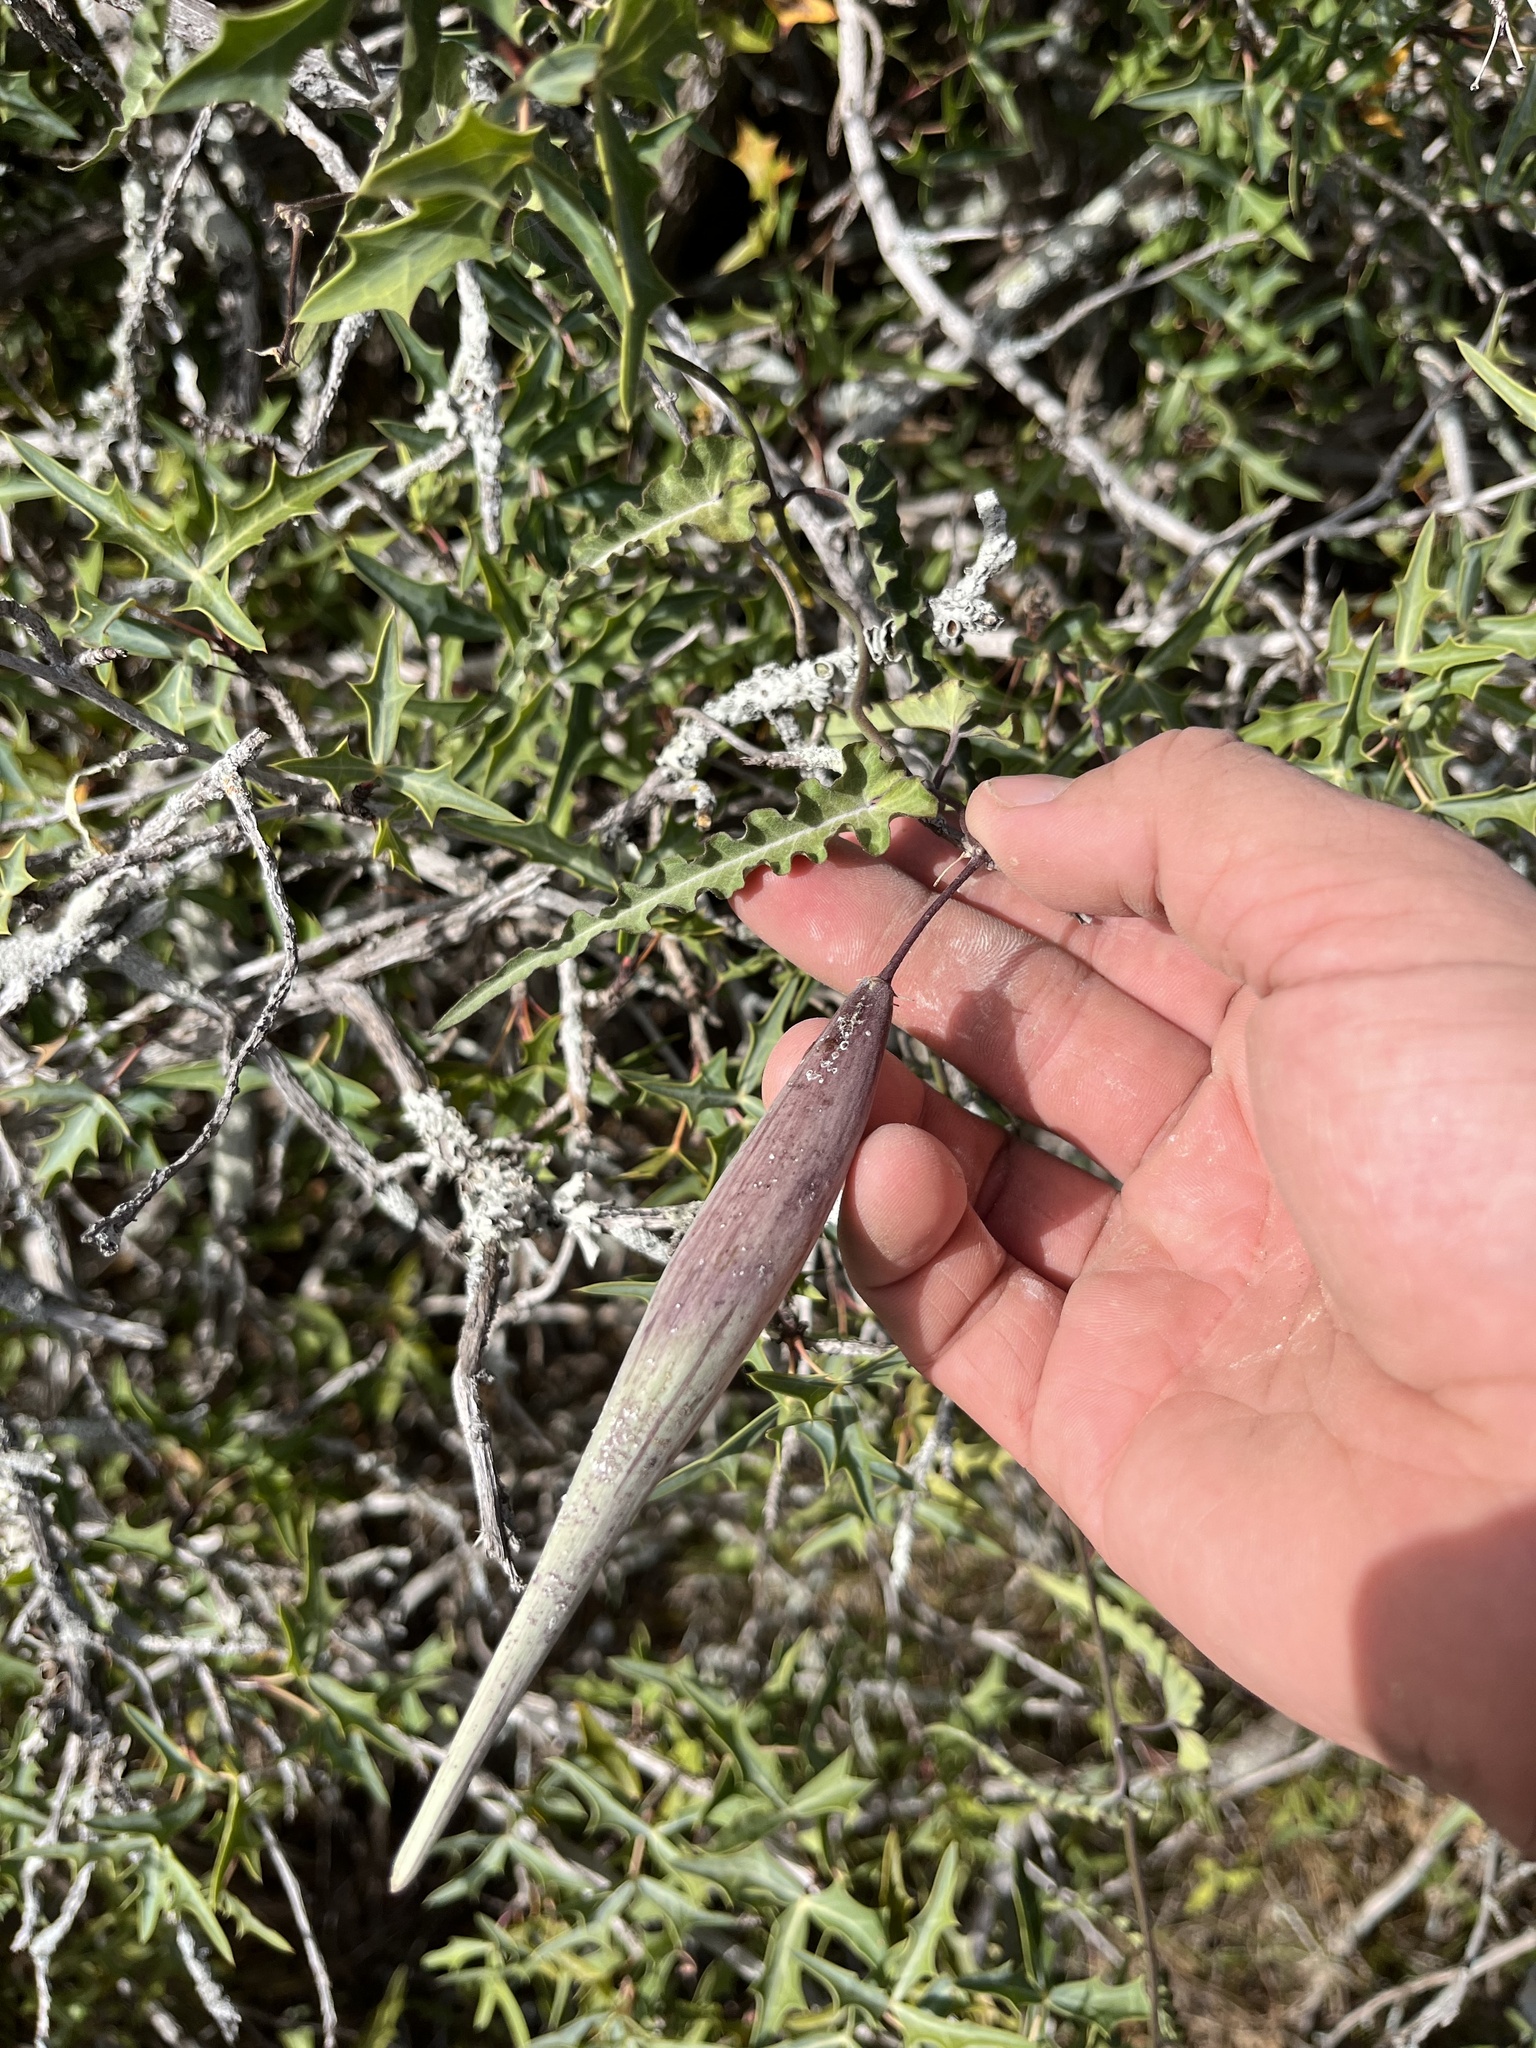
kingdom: Plantae
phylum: Tracheophyta
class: Magnoliopsida
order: Gentianales
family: Apocynaceae
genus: Funastrum
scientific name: Funastrum crispum
